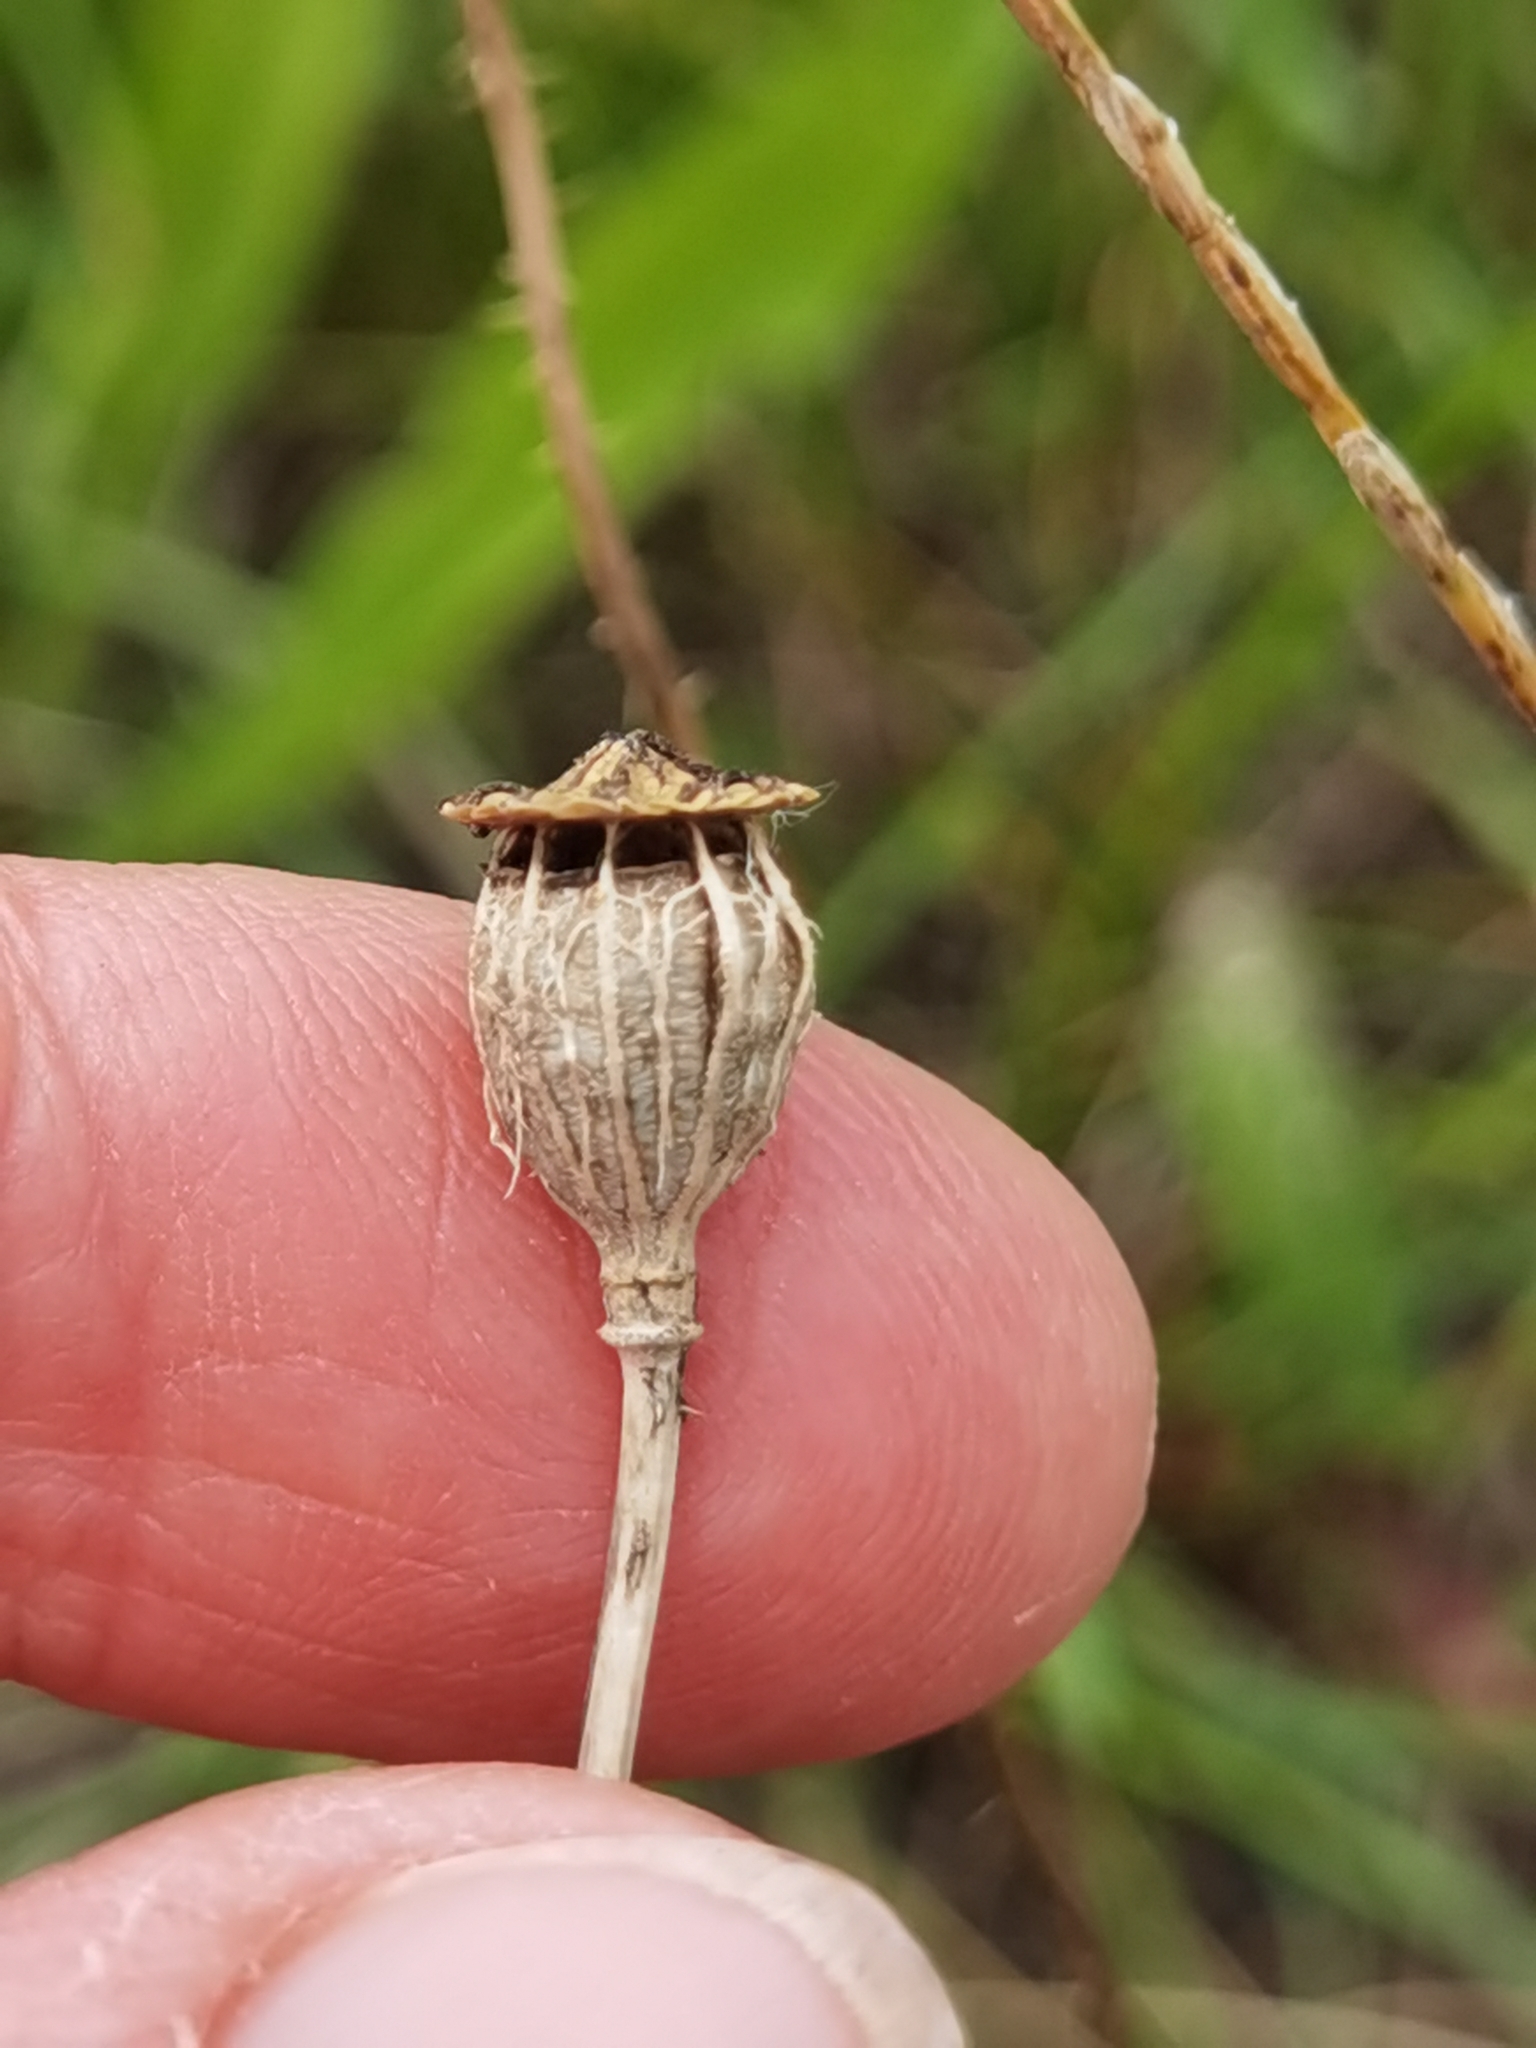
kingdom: Plantae
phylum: Tracheophyta
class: Magnoliopsida
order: Ranunculales
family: Papaveraceae
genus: Papaver
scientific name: Papaver rhoeas
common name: Corn poppy
